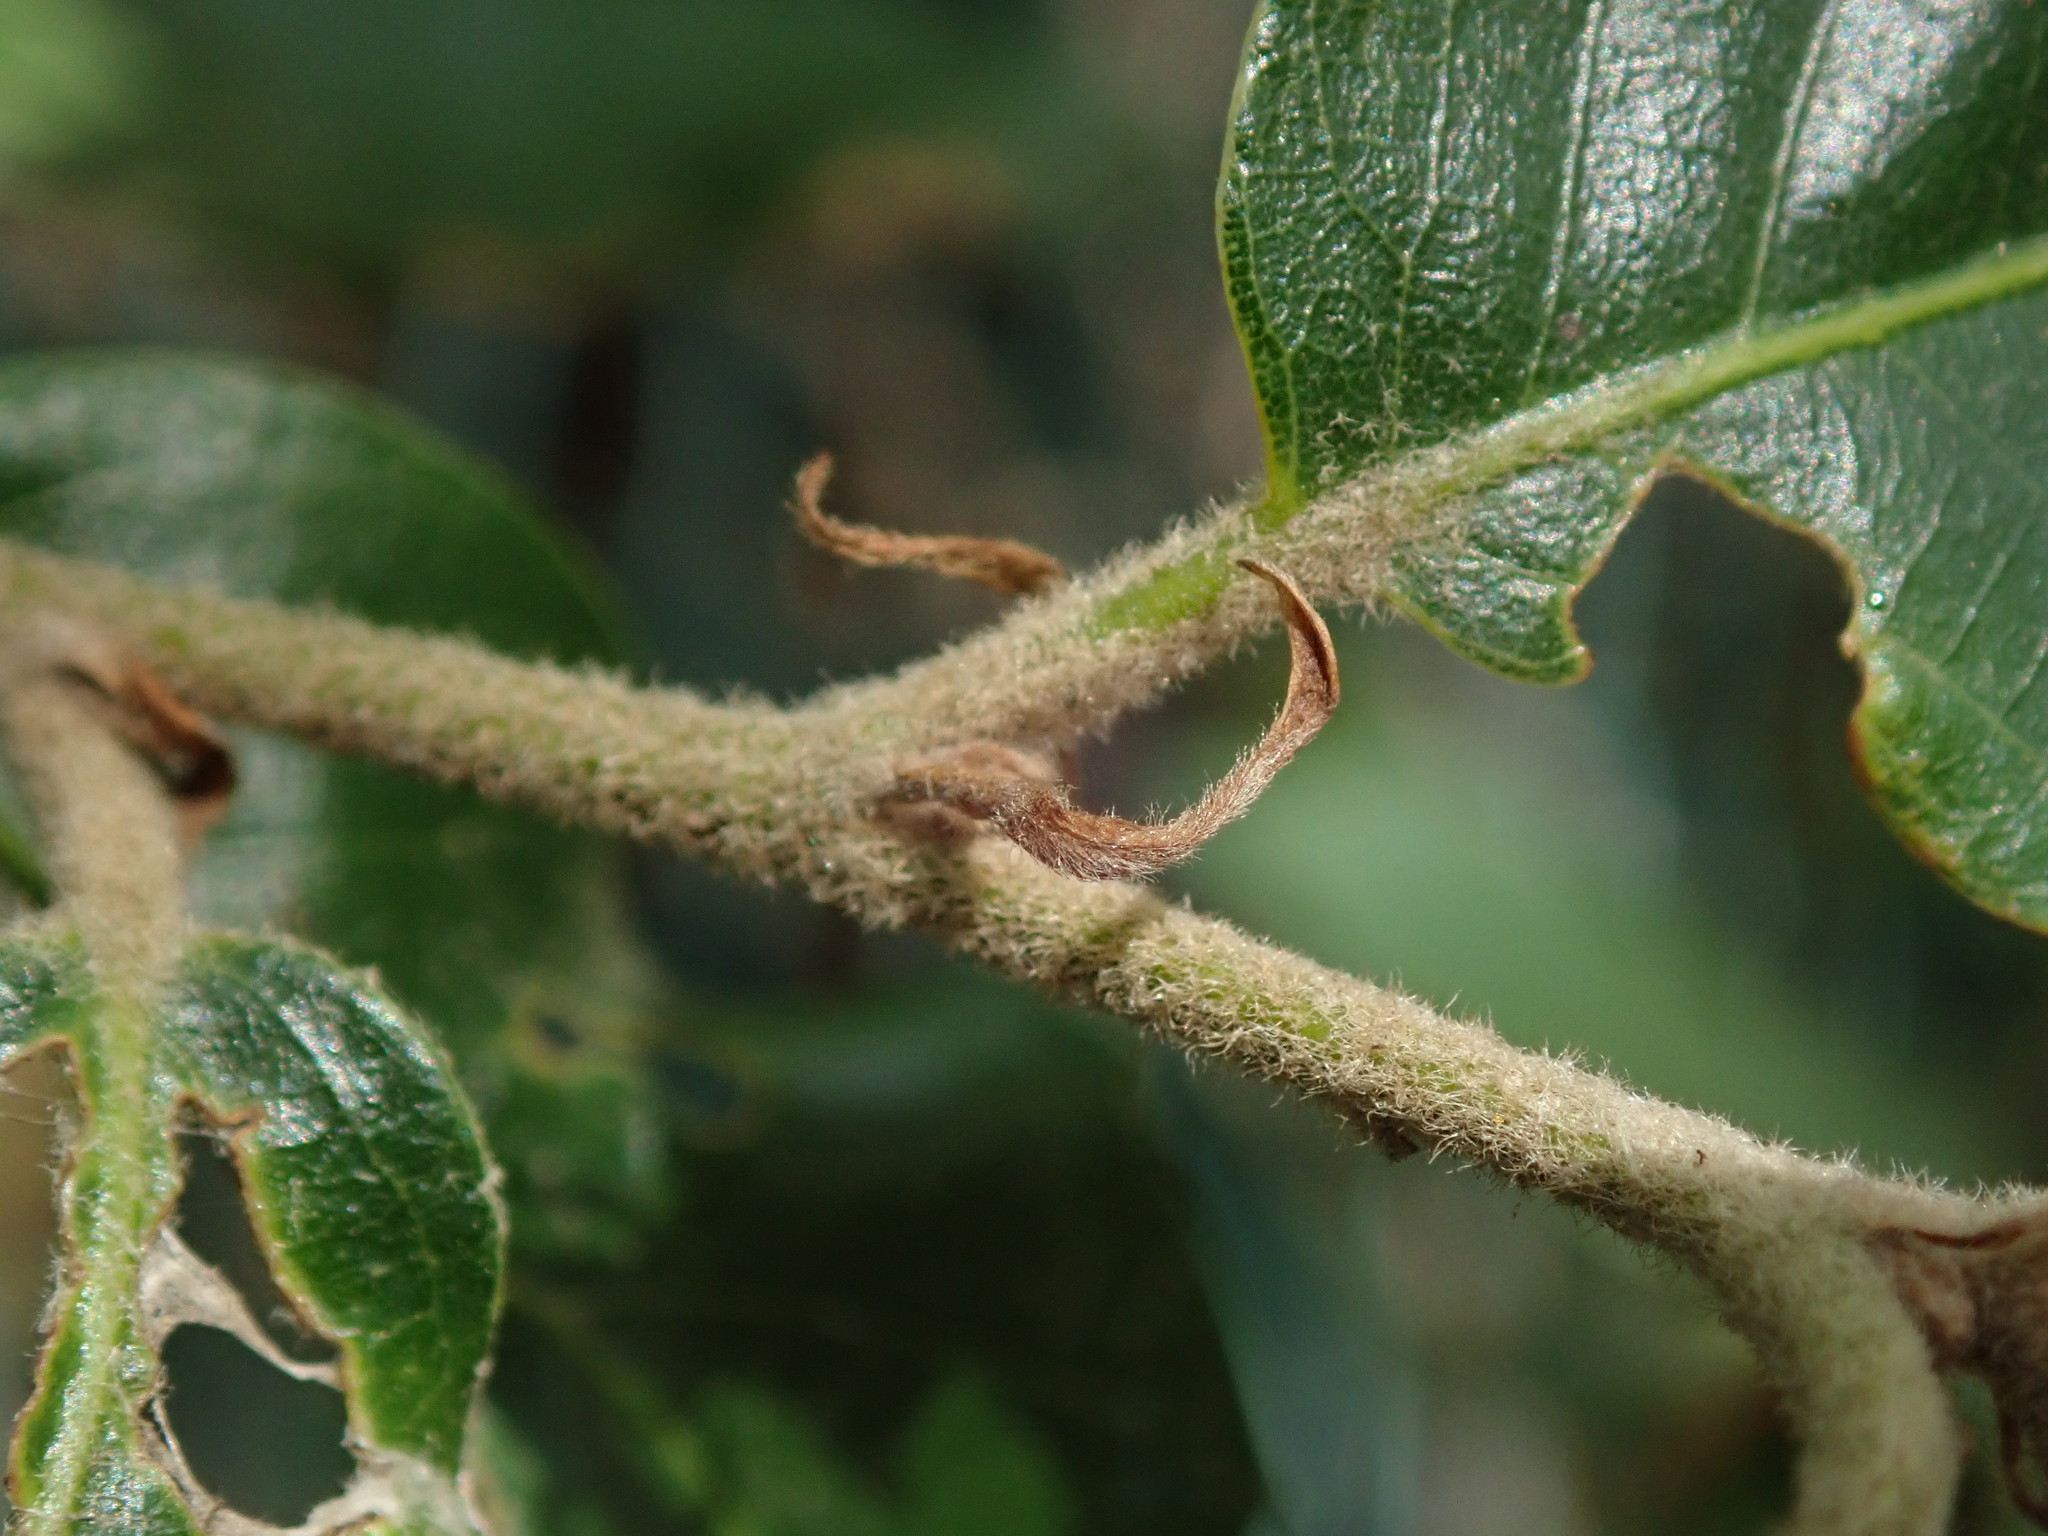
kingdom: Plantae
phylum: Tracheophyta
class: Magnoliopsida
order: Fagales
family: Fagaceae
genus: Quercus
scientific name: Quercus ilex
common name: Evergreen oak
